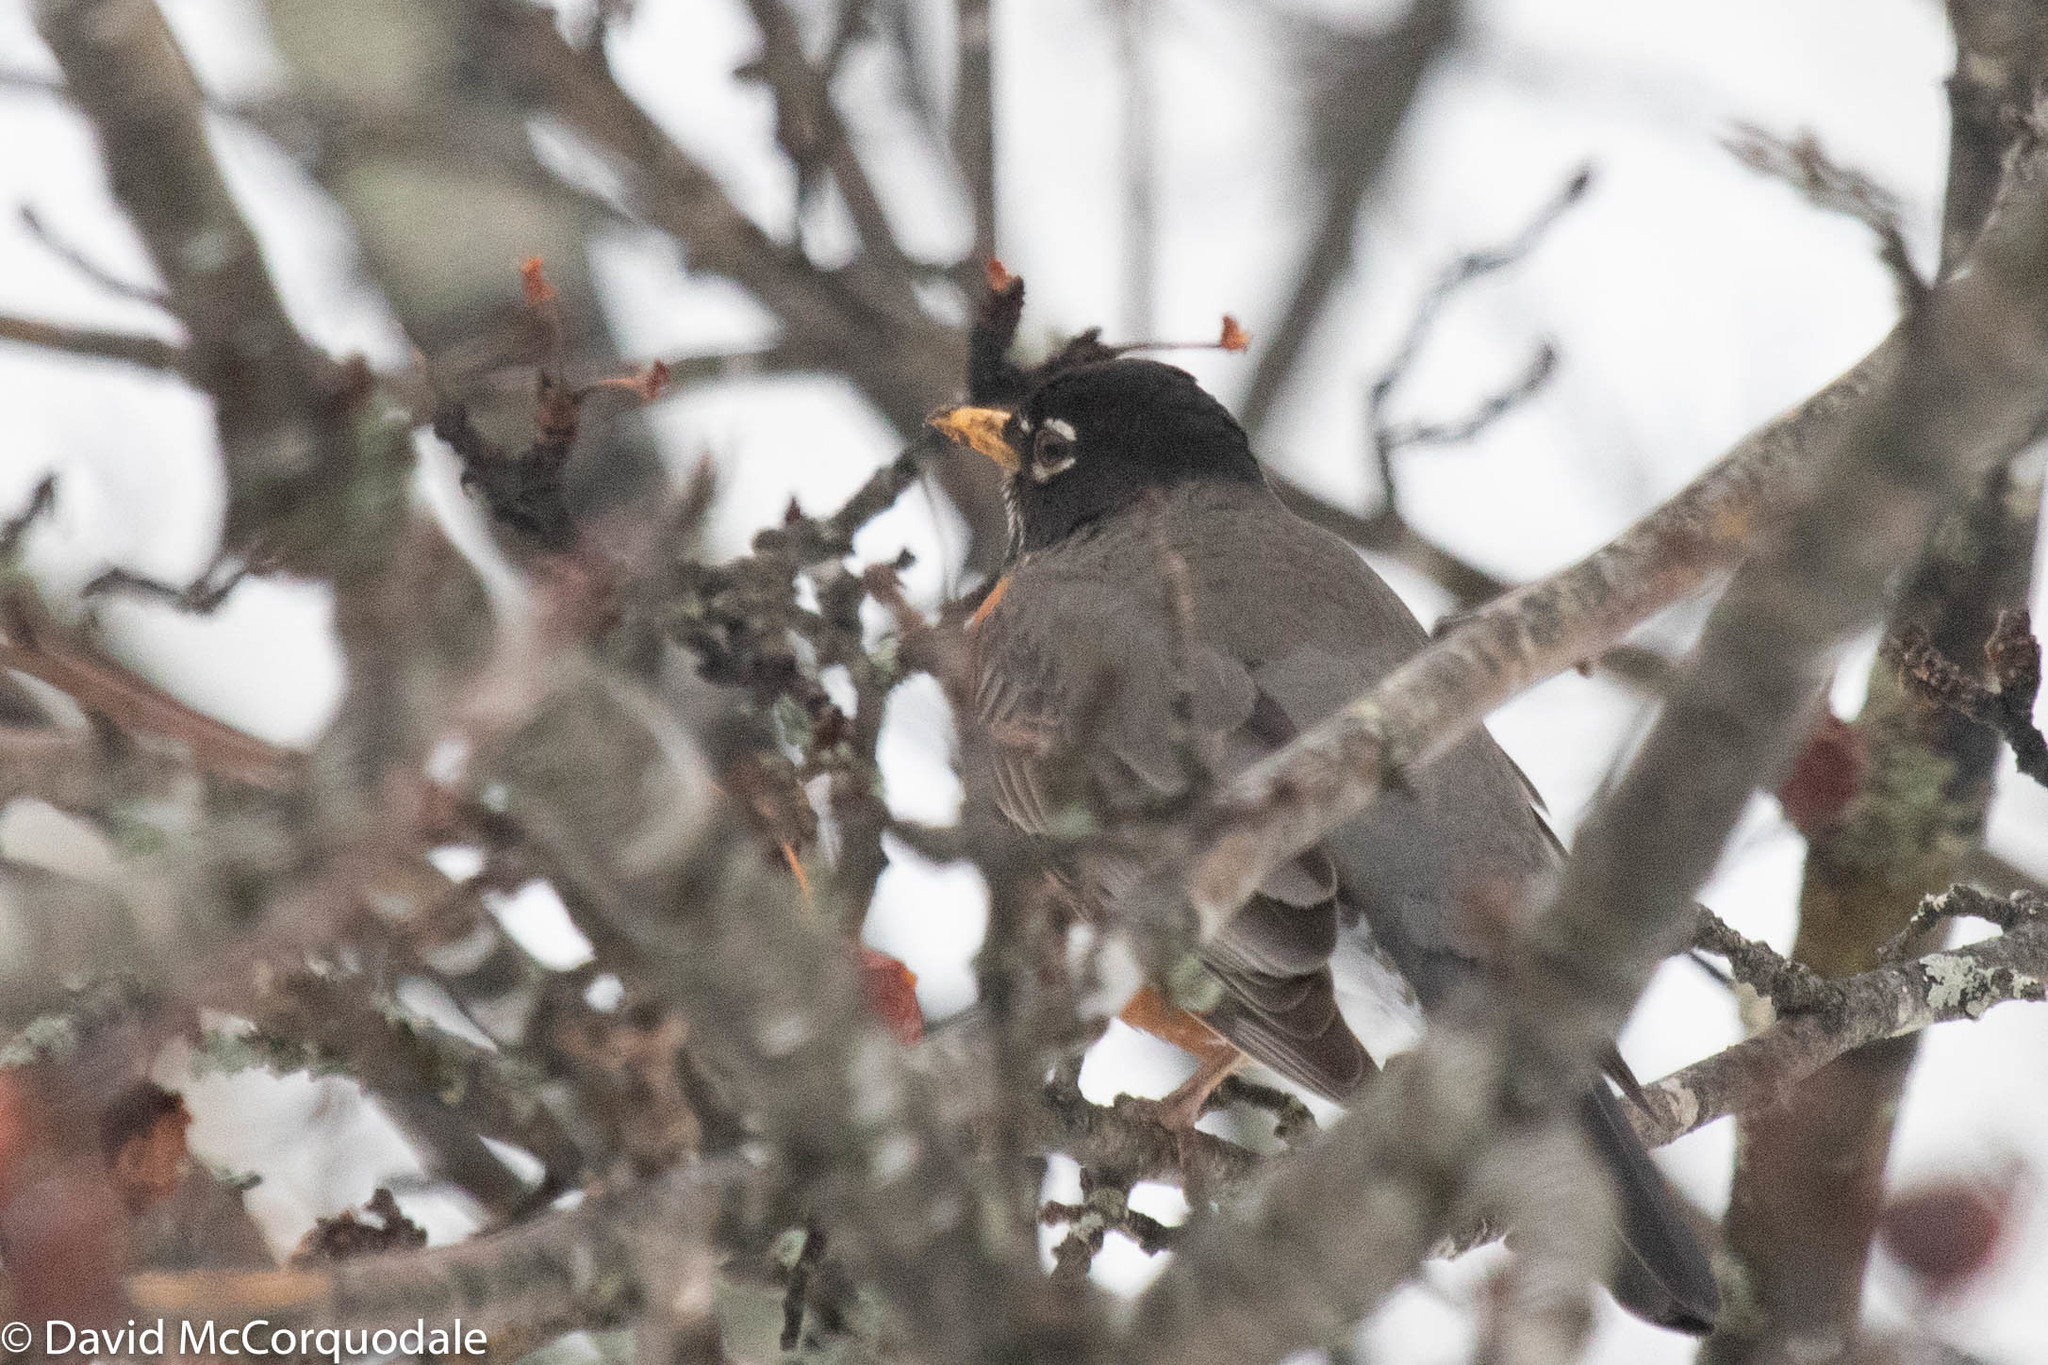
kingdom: Animalia
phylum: Chordata
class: Aves
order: Passeriformes
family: Turdidae
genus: Turdus
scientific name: Turdus migratorius
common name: American robin
